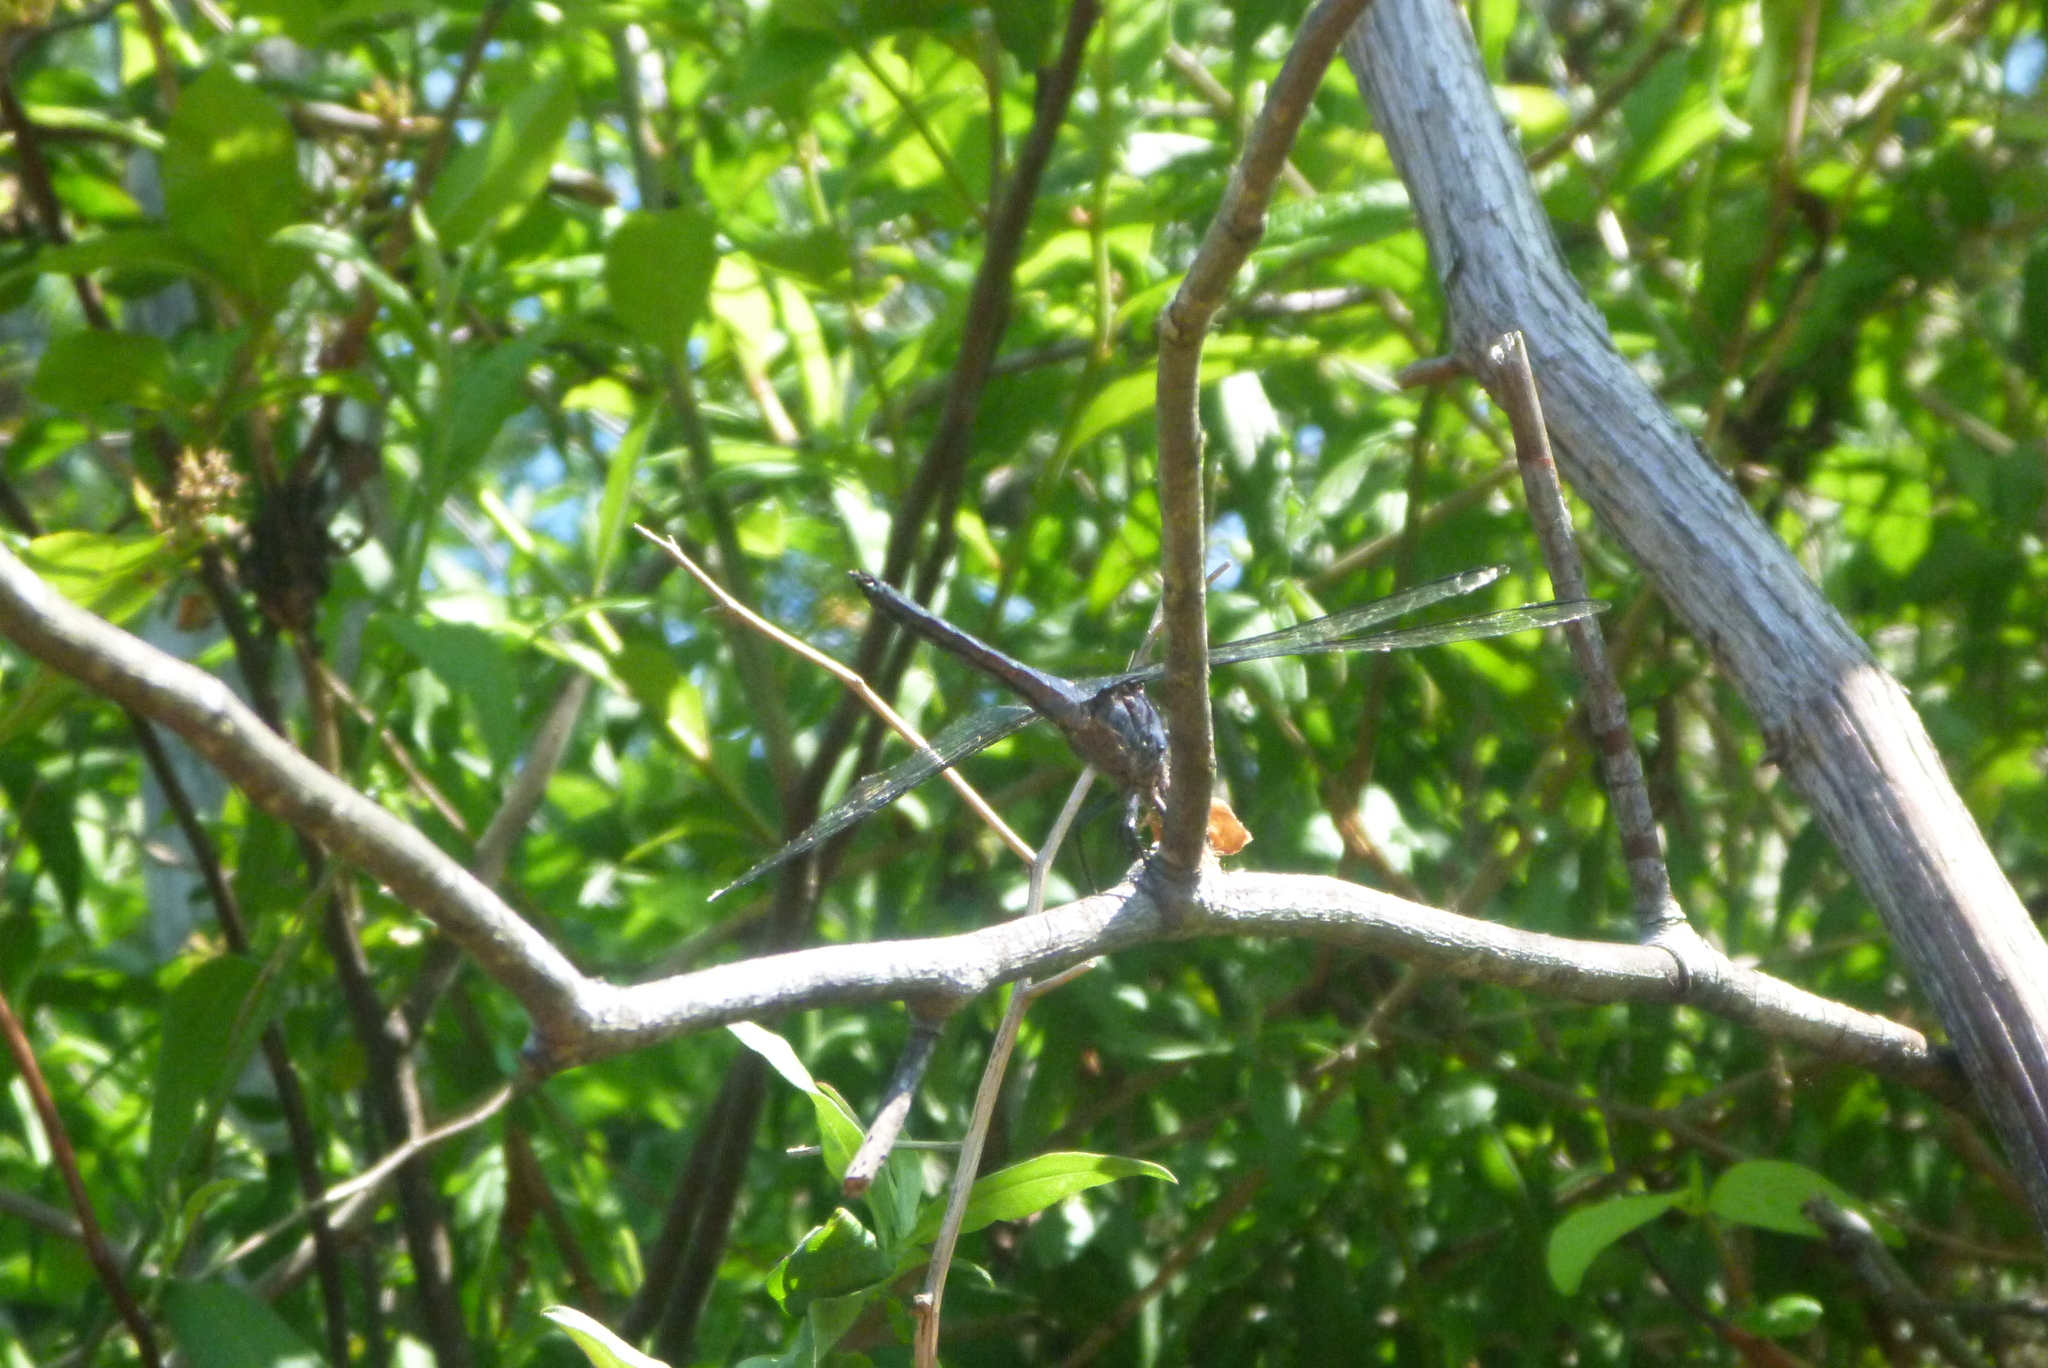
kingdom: Animalia
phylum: Arthropoda
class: Insecta
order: Odonata
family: Libellulidae
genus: Libellula
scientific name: Libellula incesta
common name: Slaty skimmer
